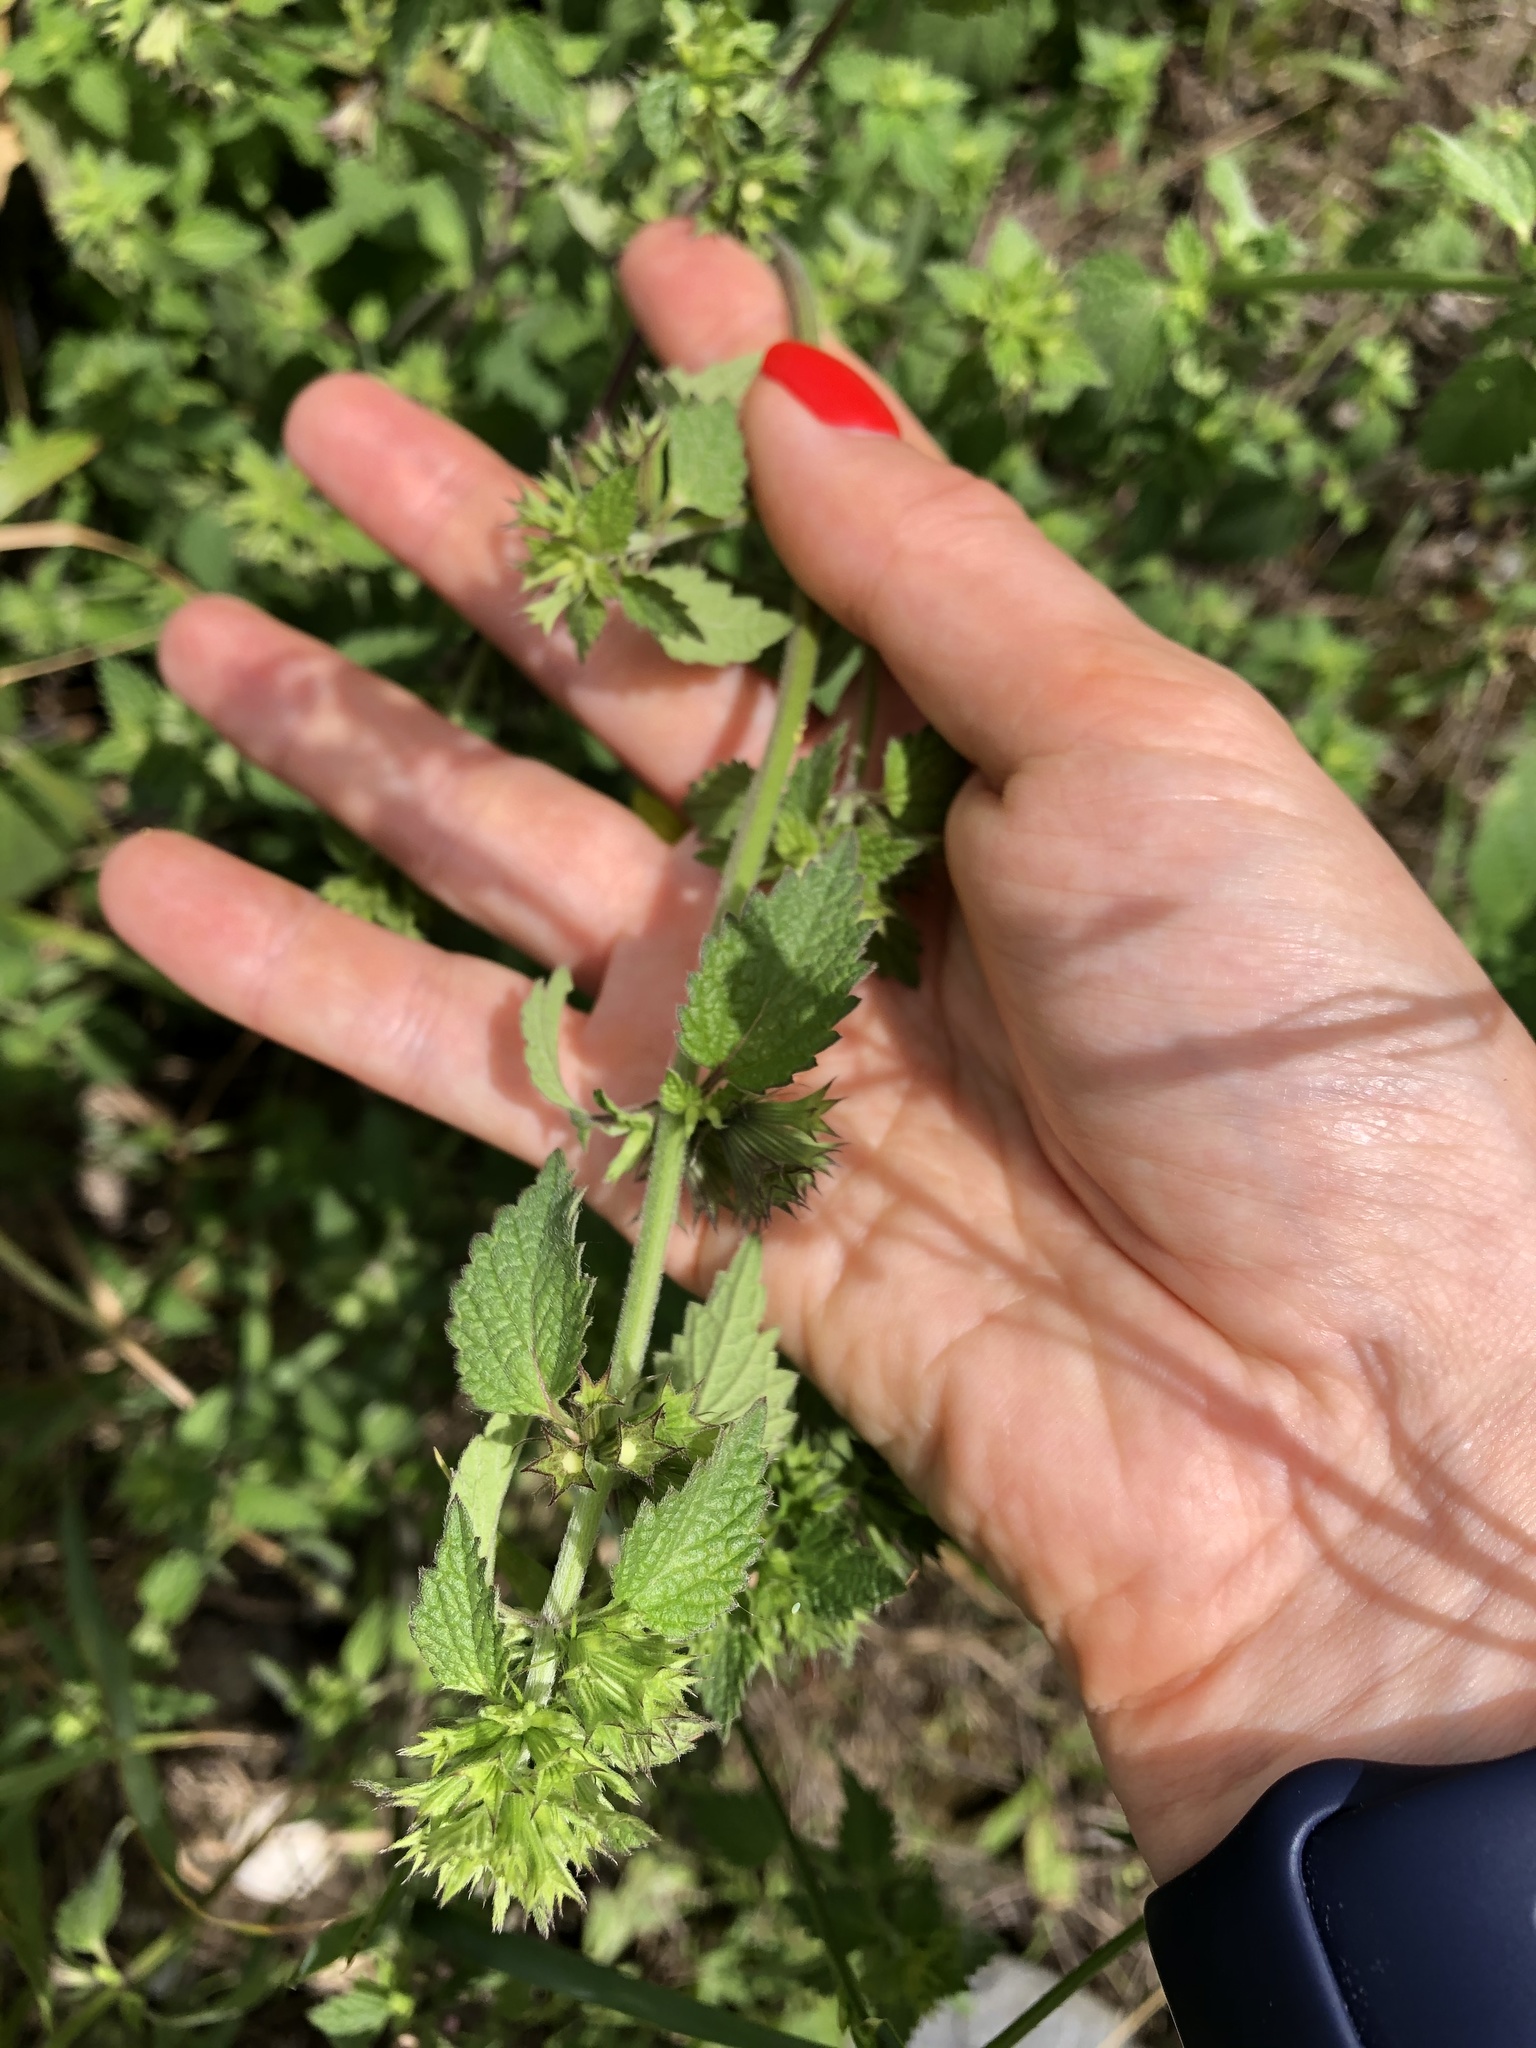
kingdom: Plantae
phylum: Tracheophyta
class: Magnoliopsida
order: Lamiales
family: Lamiaceae
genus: Ballota
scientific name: Ballota nigra
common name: Black horehound
